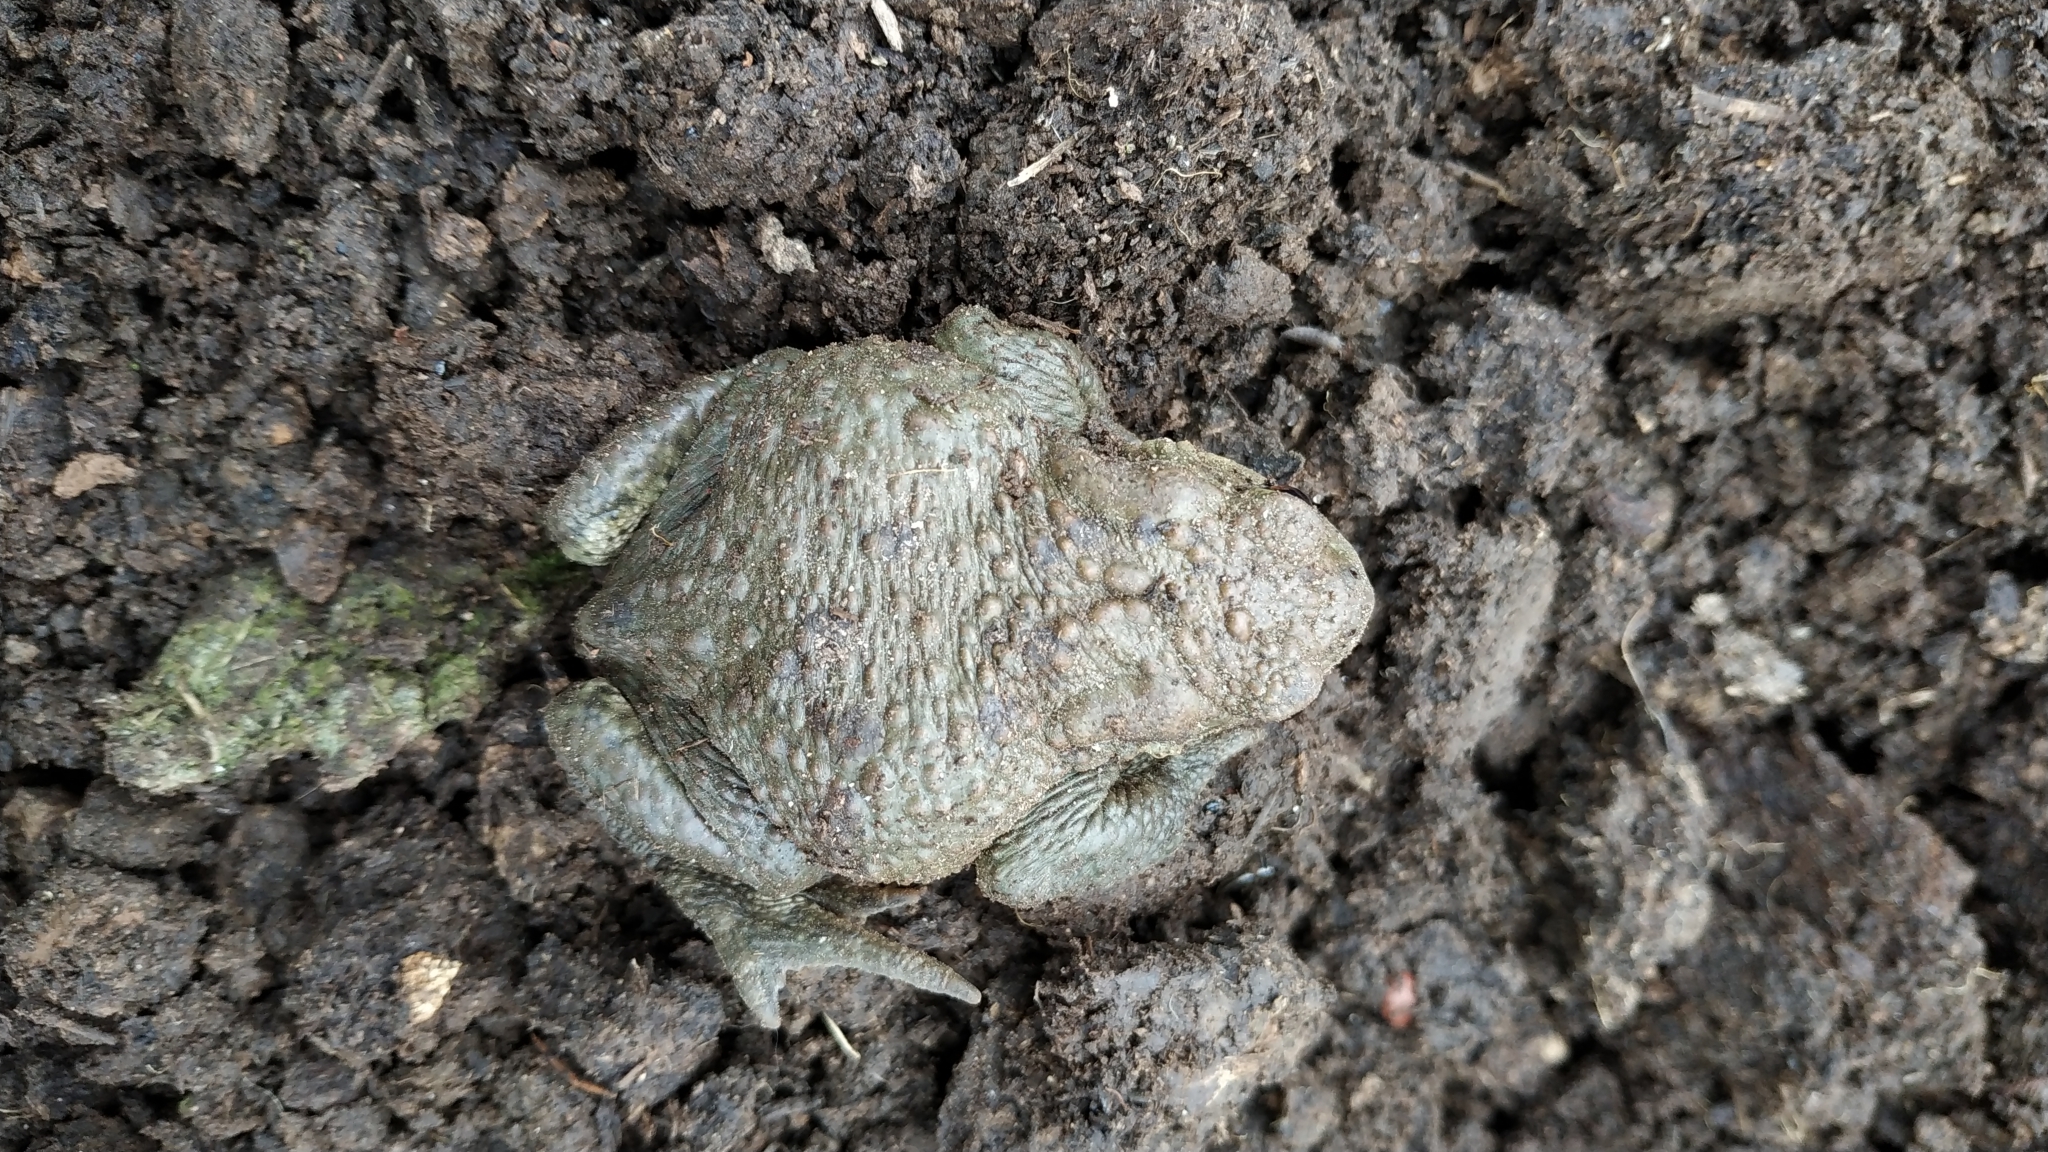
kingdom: Animalia
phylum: Chordata
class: Amphibia
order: Anura
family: Bufonidae
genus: Bufo
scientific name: Bufo bufo
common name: Common toad
